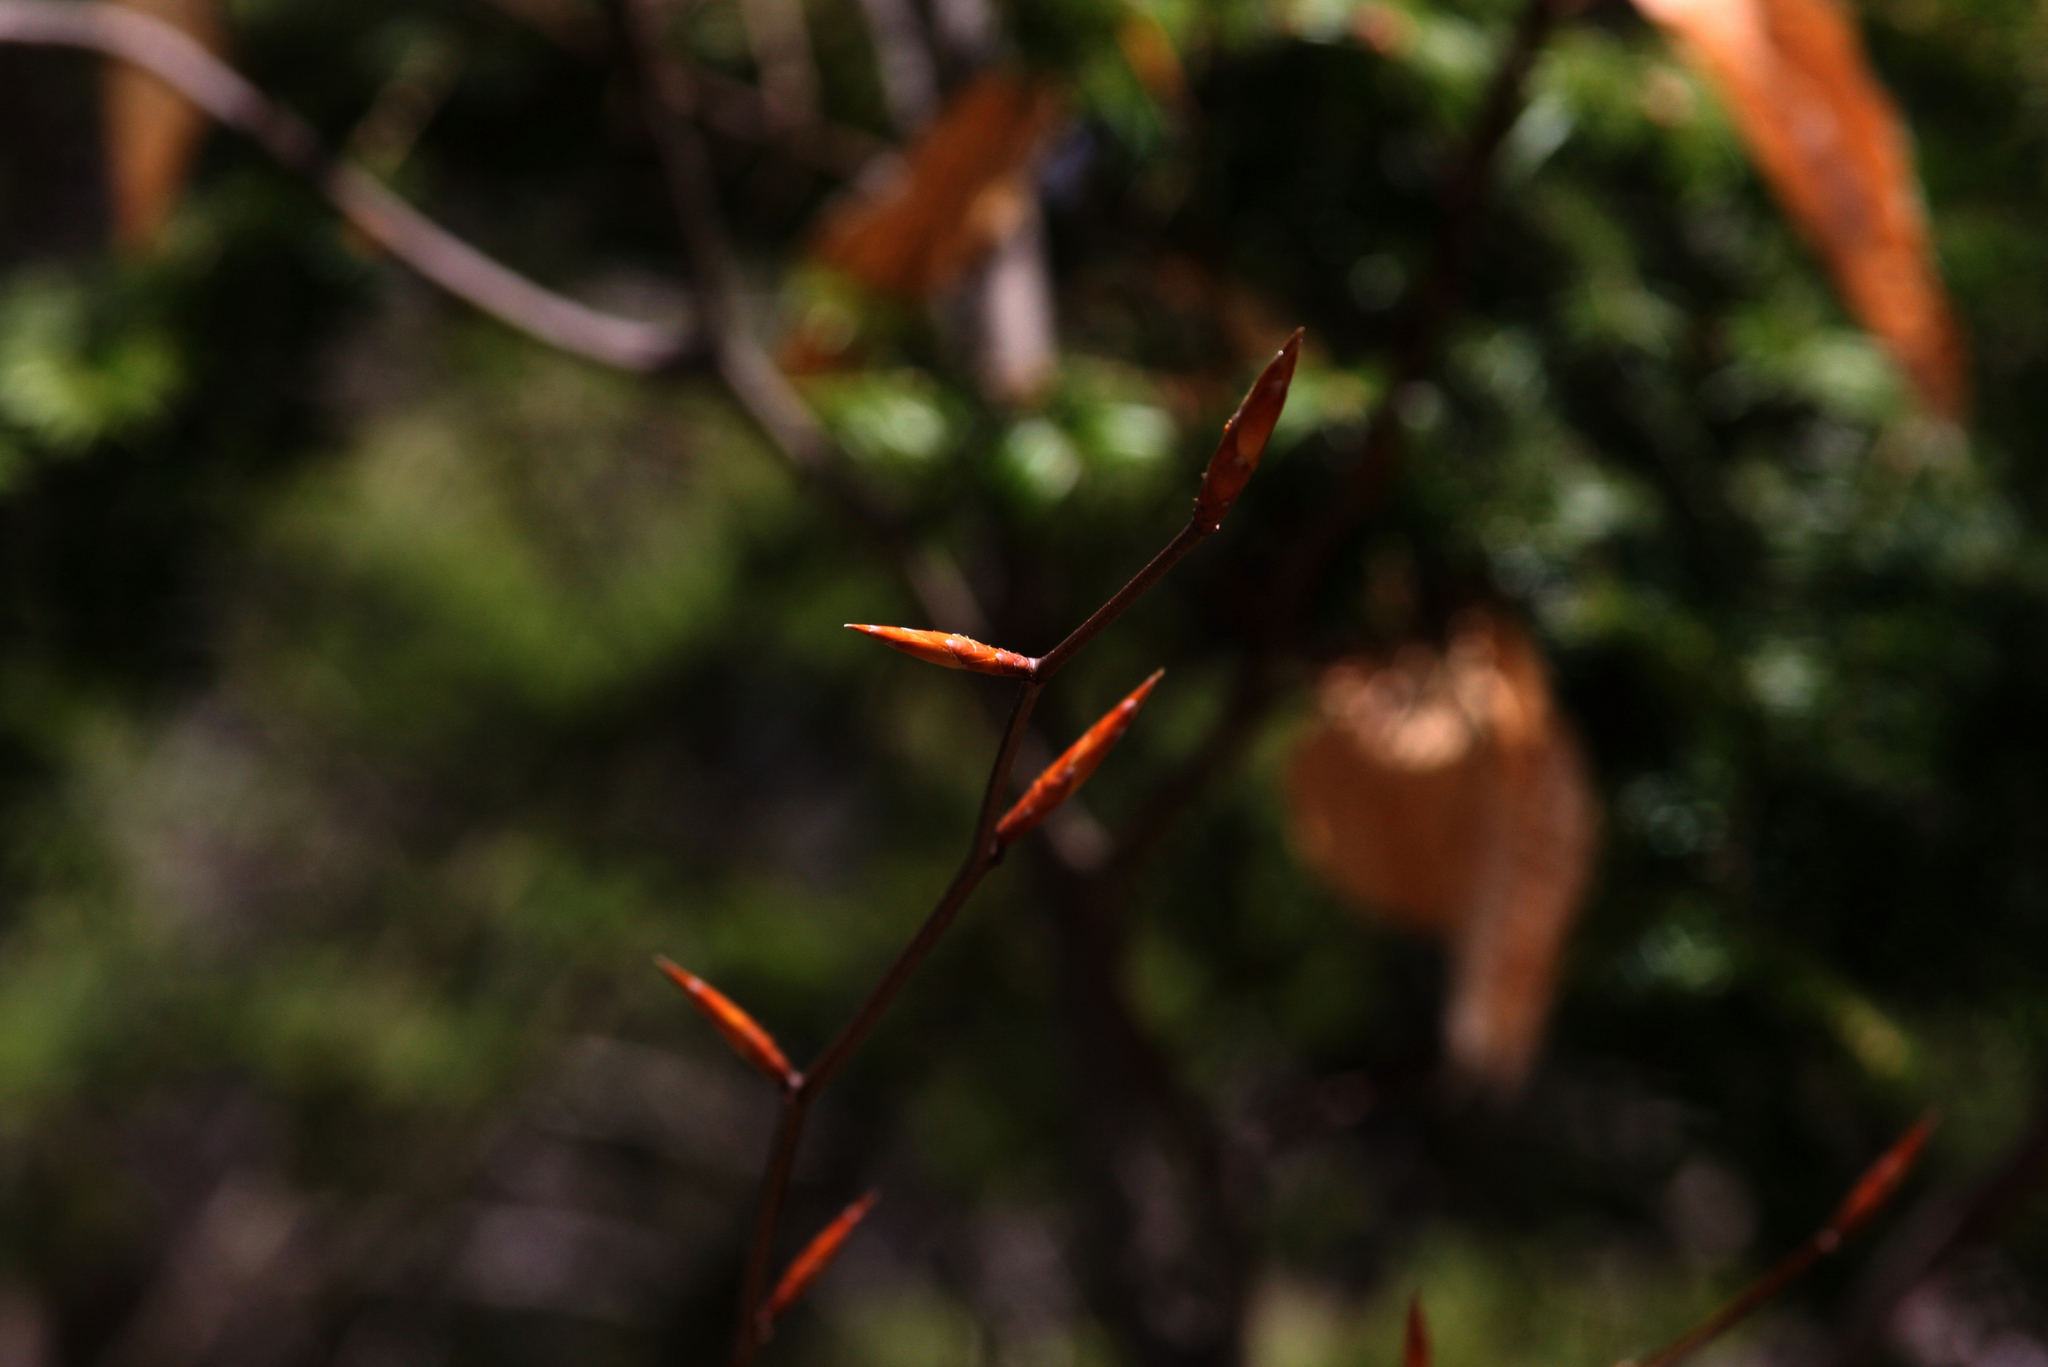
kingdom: Plantae
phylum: Tracheophyta
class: Magnoliopsida
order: Fagales
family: Fagaceae
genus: Fagus
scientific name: Fagus grandifolia
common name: American beech
